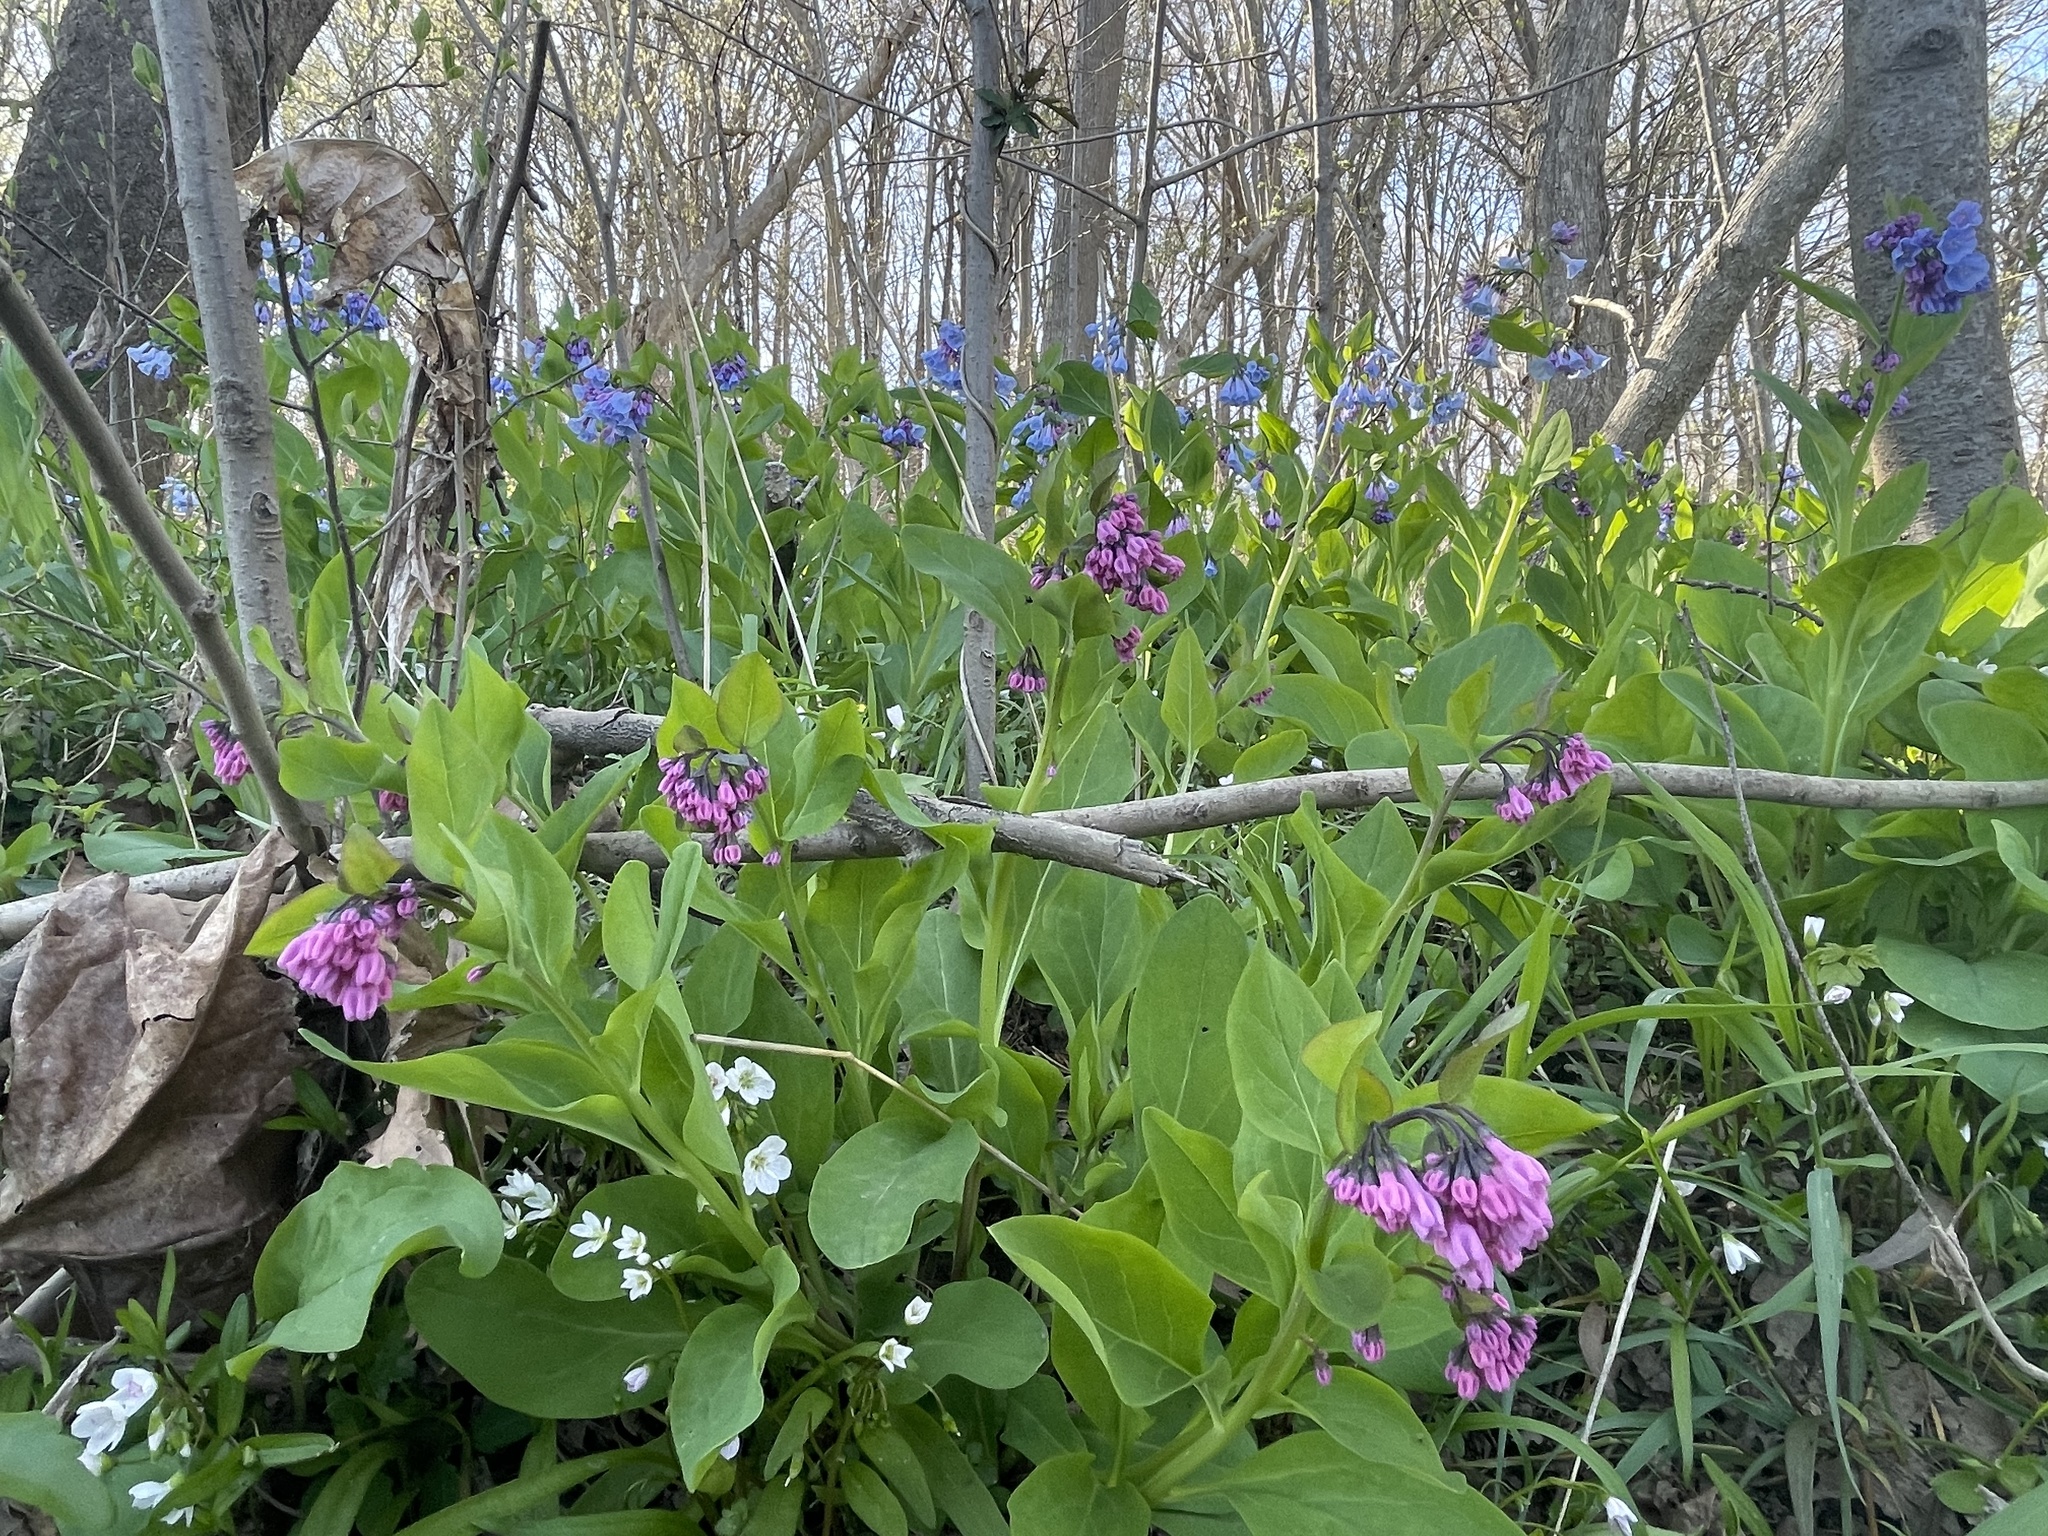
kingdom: Plantae
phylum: Tracheophyta
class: Magnoliopsida
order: Boraginales
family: Boraginaceae
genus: Mertensia
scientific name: Mertensia virginica
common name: Virginia bluebells
